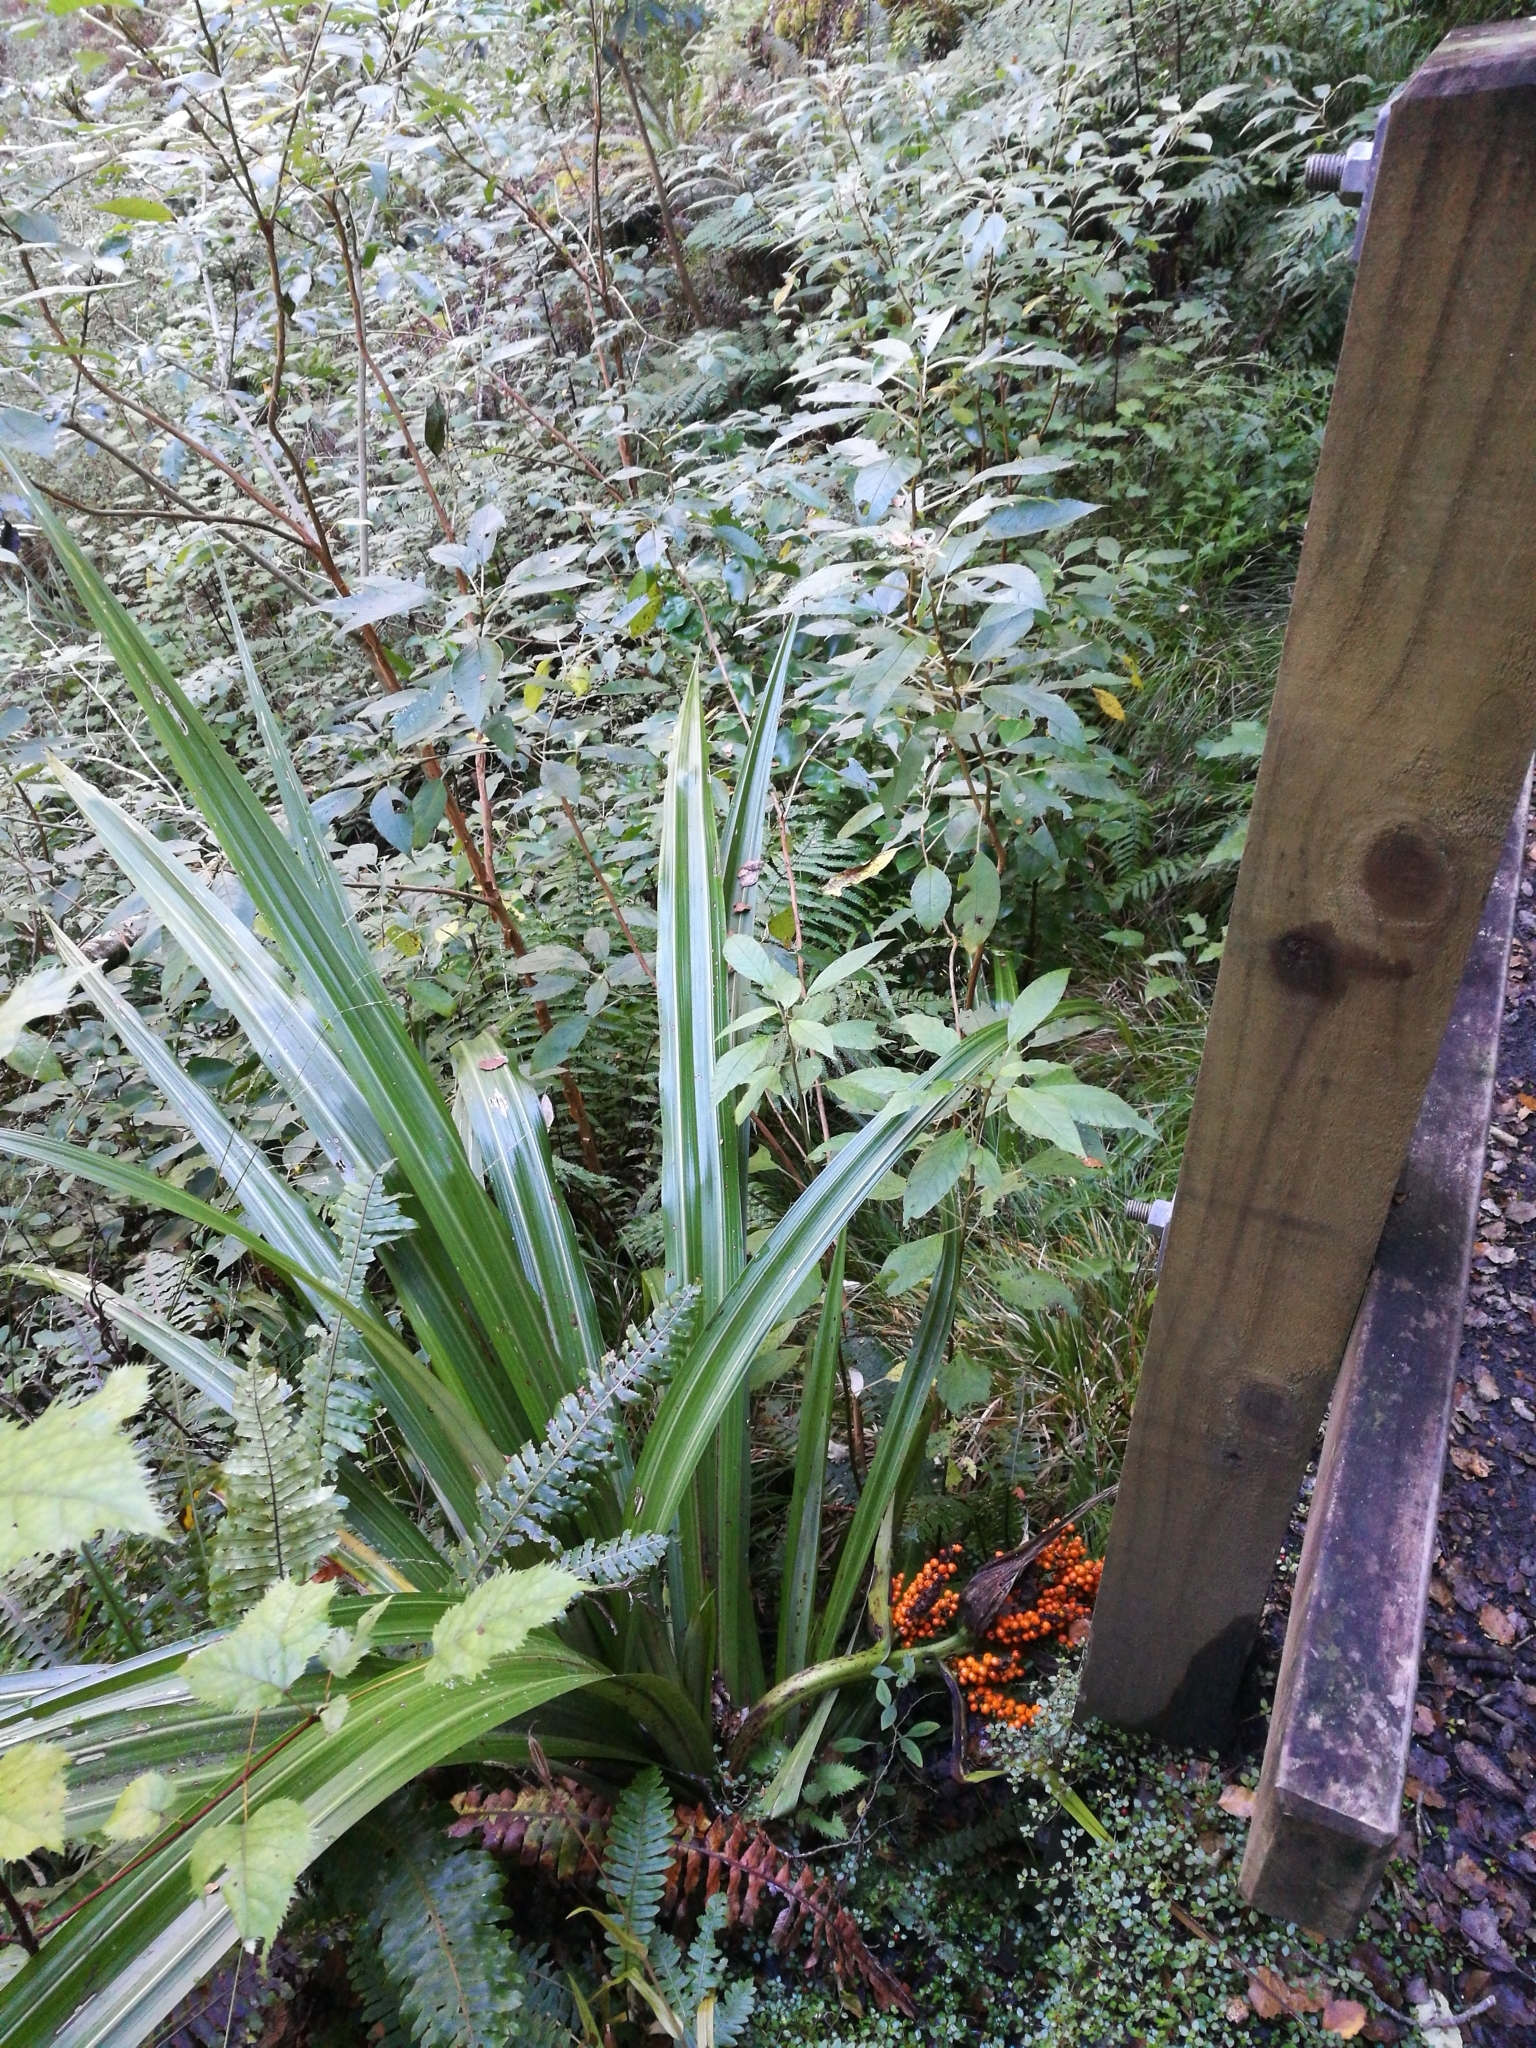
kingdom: Plantae
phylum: Tracheophyta
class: Liliopsida
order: Asparagales
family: Asteliaceae
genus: Astelia
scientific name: Astelia fragrans
